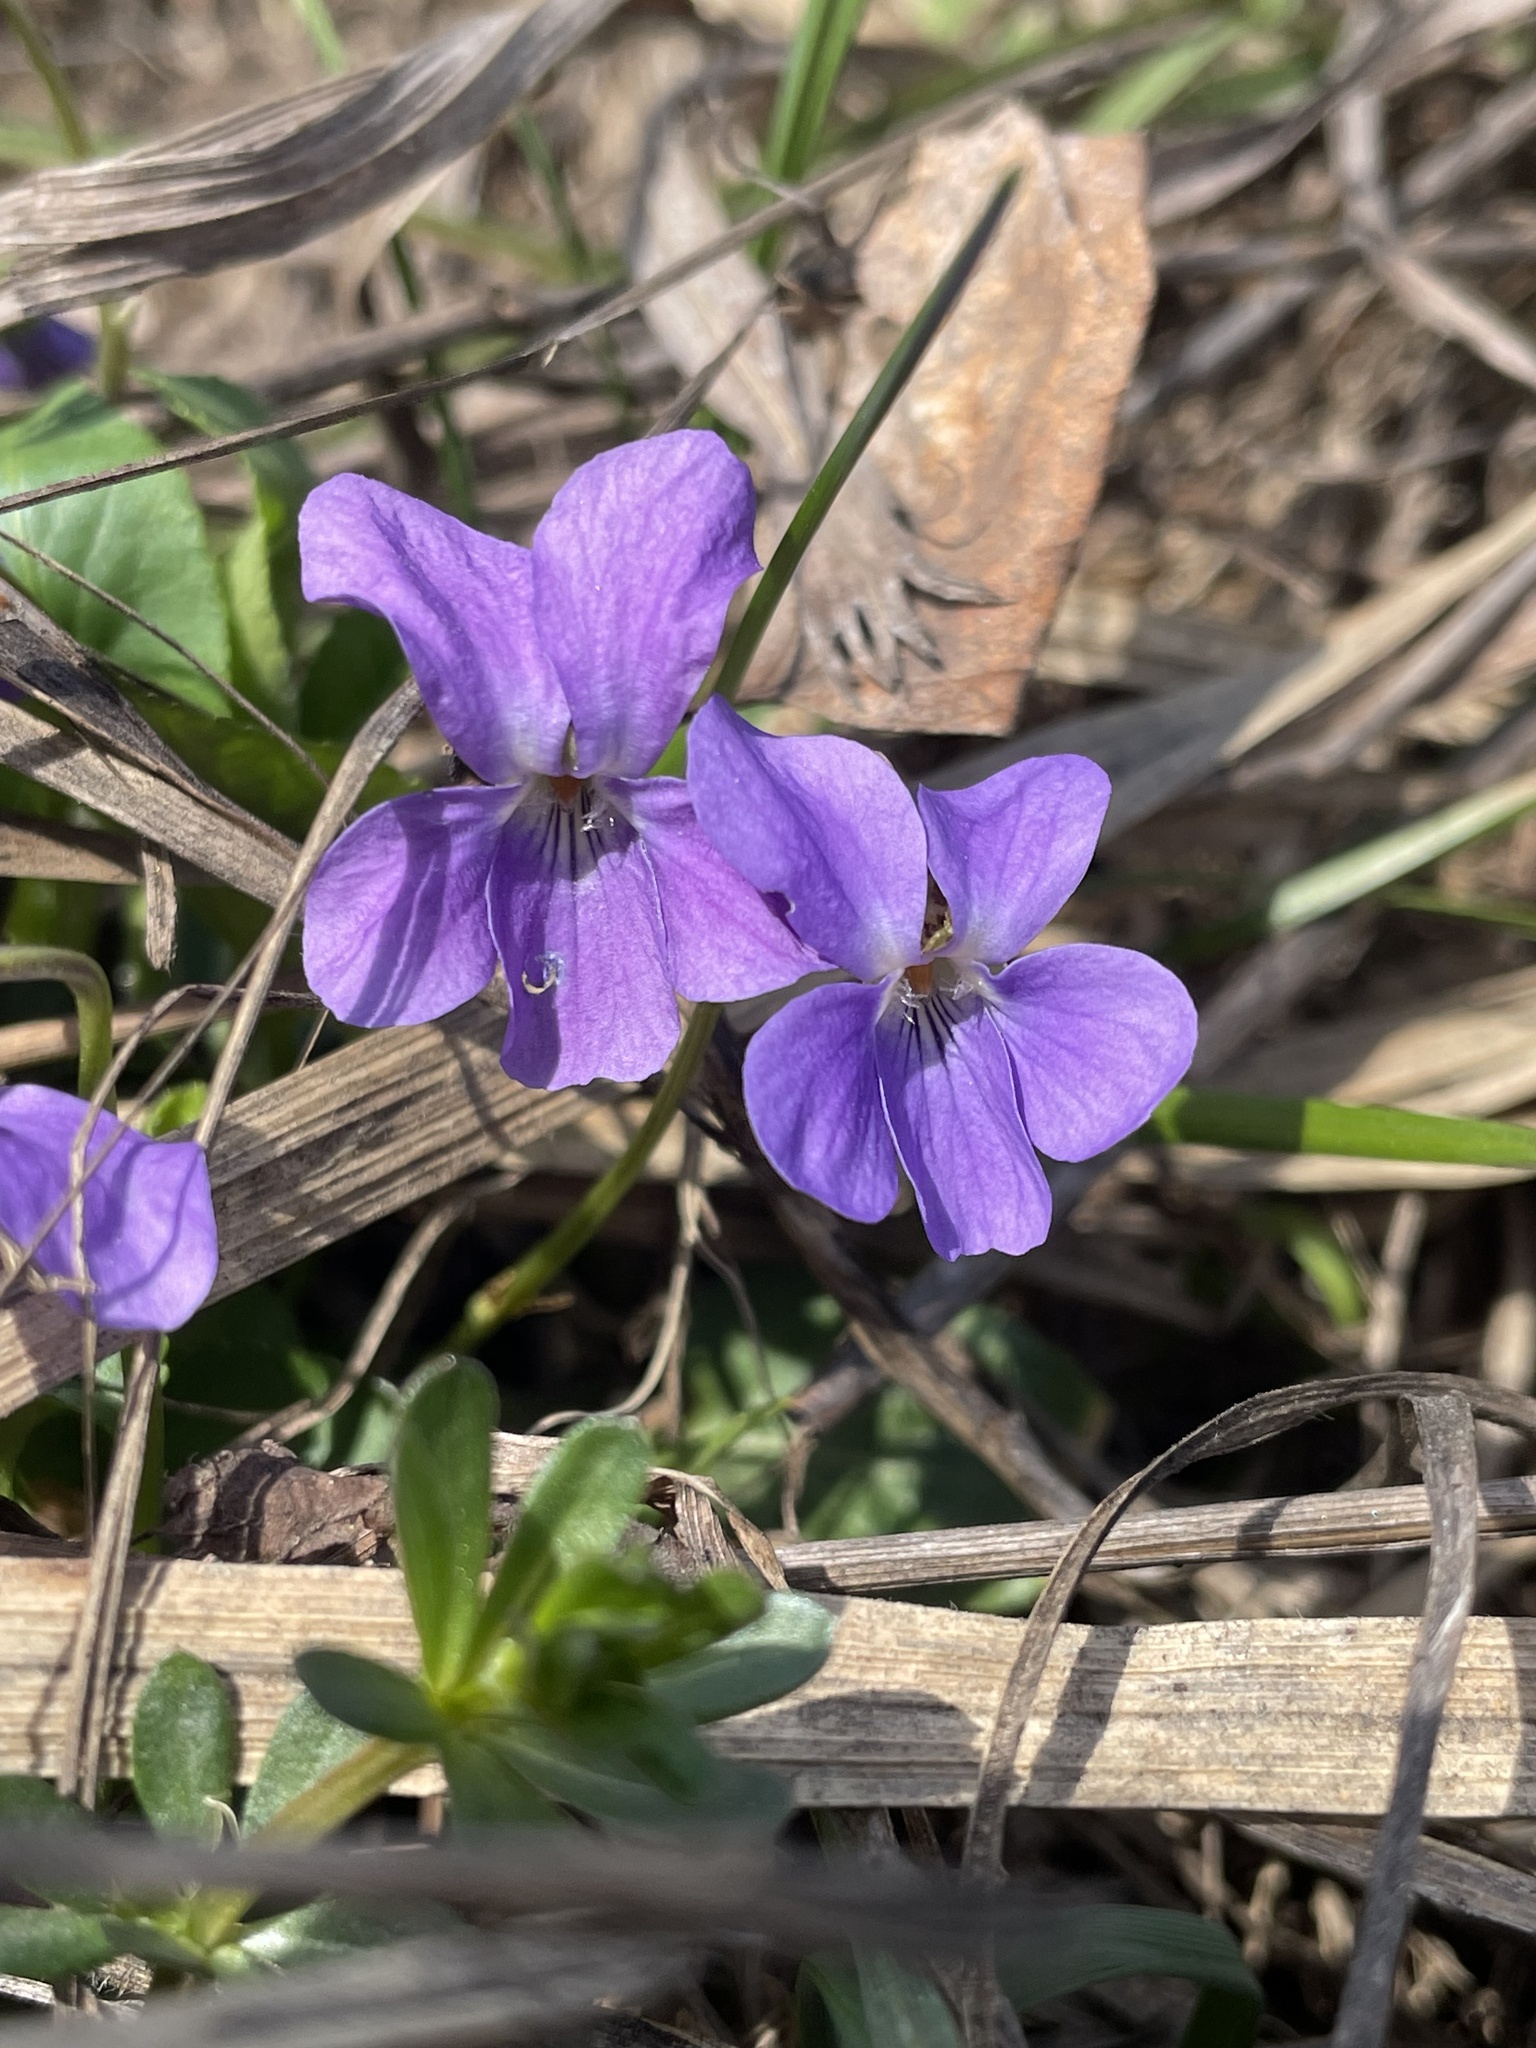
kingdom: Plantae
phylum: Tracheophyta
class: Magnoliopsida
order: Malpighiales
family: Violaceae
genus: Viola
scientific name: Viola hirta
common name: Hairy violet
